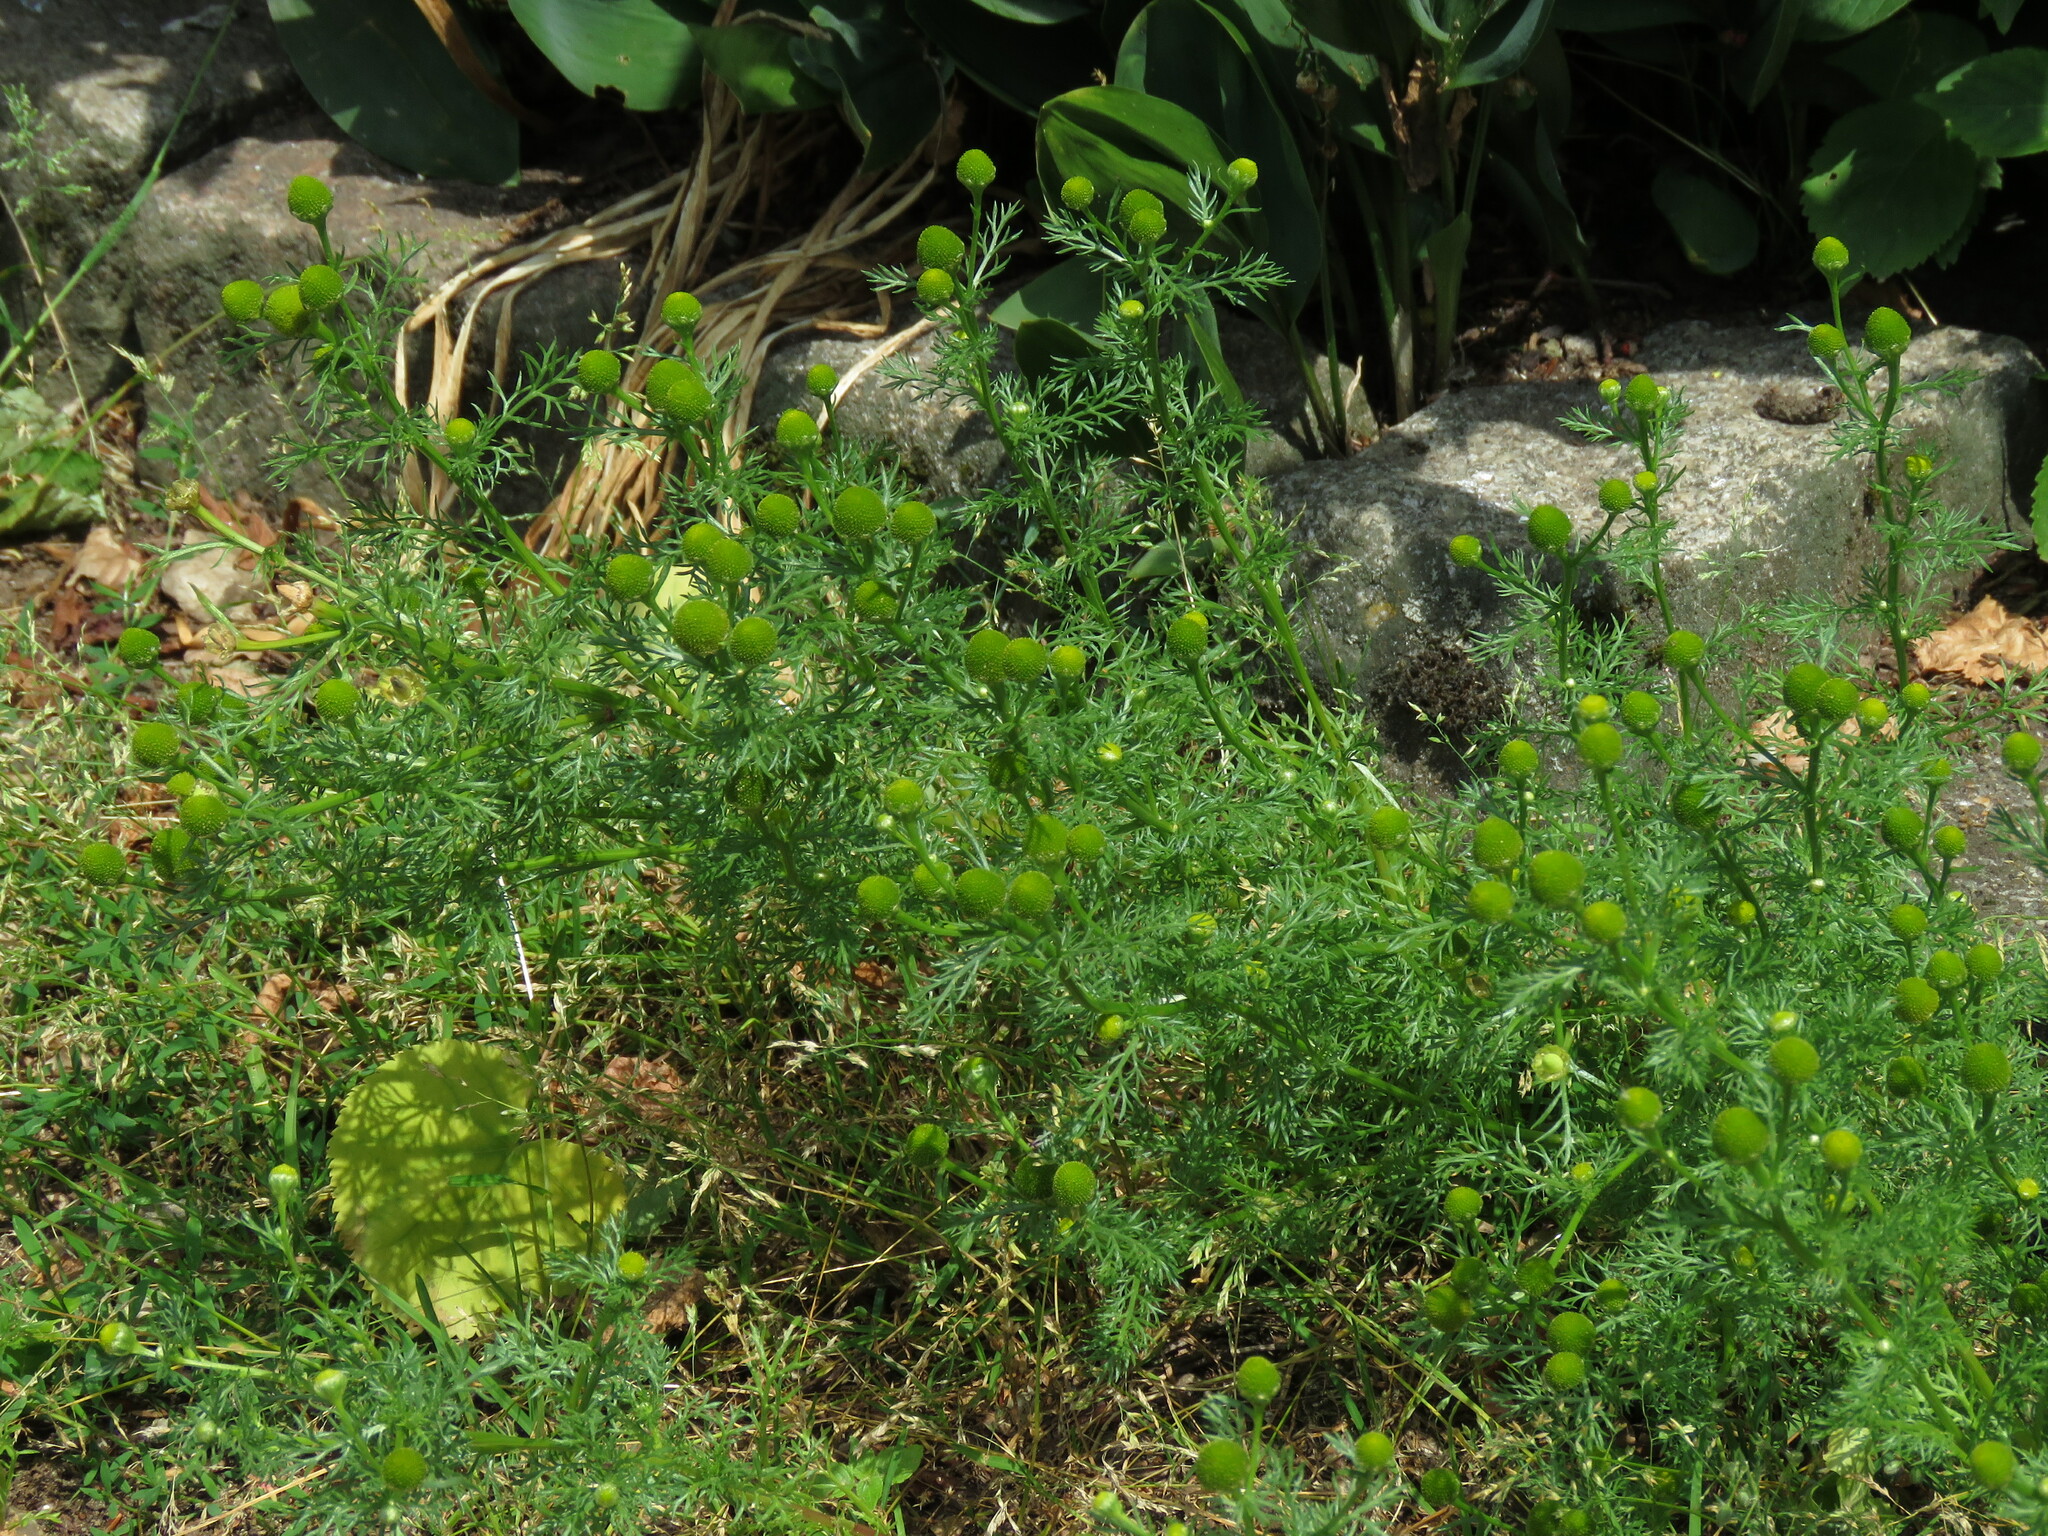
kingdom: Plantae
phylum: Tracheophyta
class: Magnoliopsida
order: Asterales
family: Asteraceae
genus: Matricaria
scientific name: Matricaria discoidea
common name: Disc mayweed
